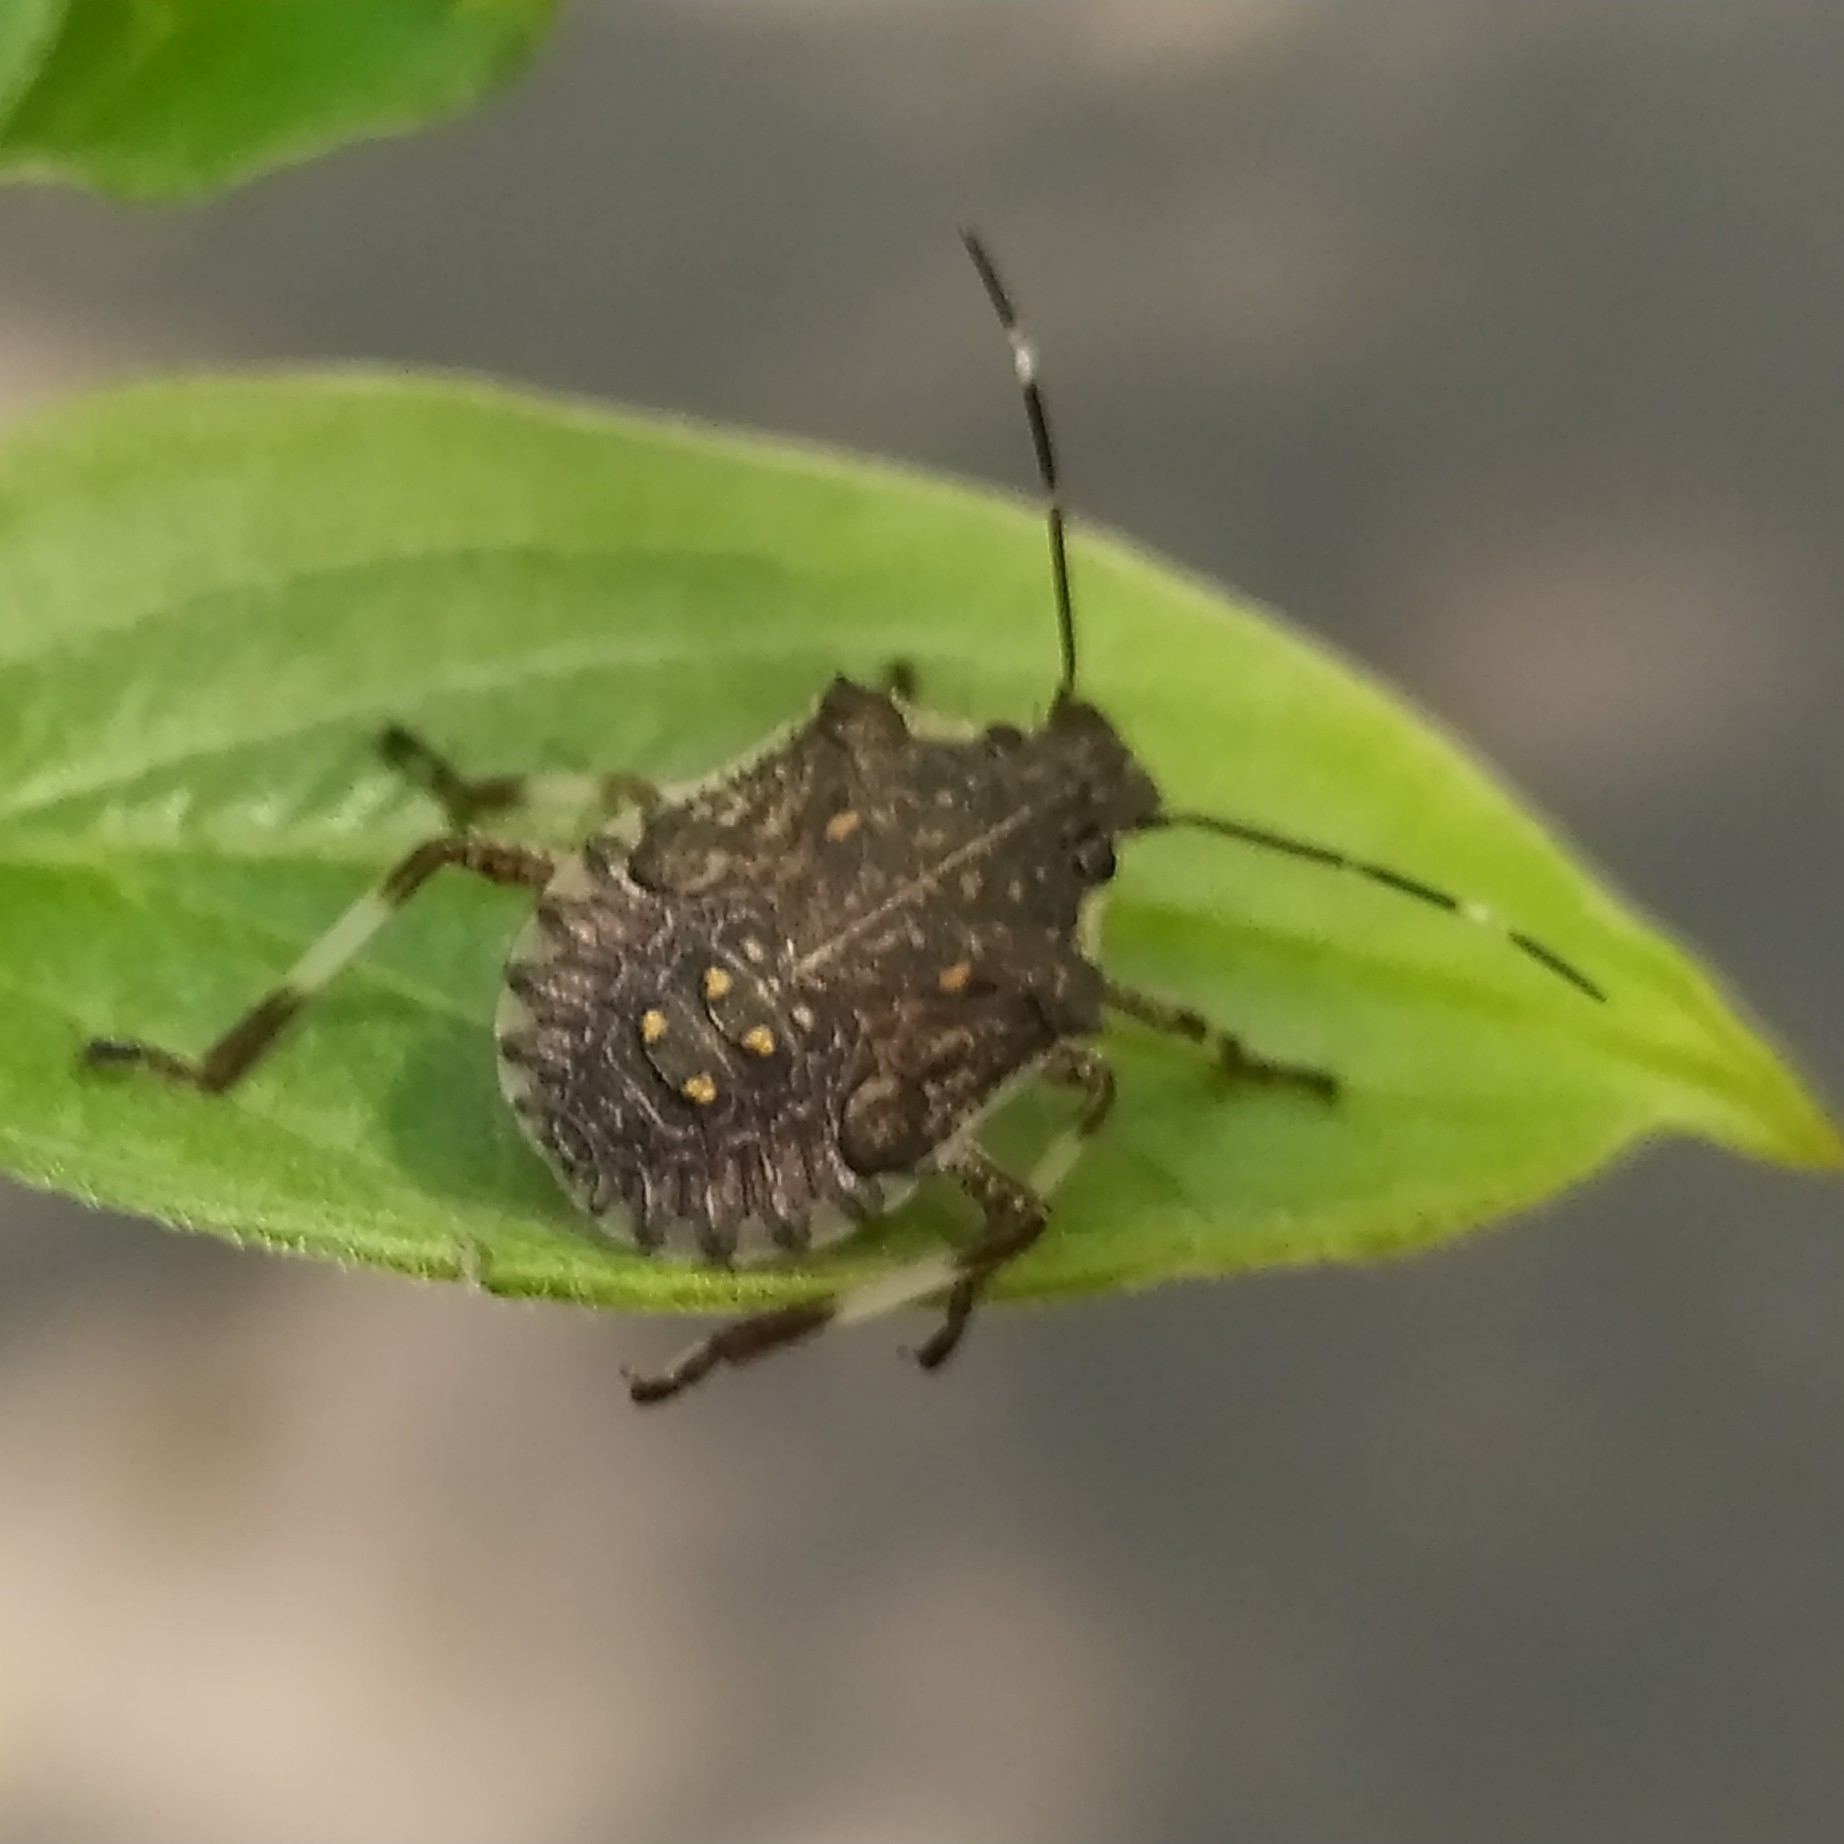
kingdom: Animalia
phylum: Arthropoda
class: Insecta
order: Hemiptera
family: Pentatomidae
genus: Halyomorpha
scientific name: Halyomorpha halys
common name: Brown marmorated stink bug
